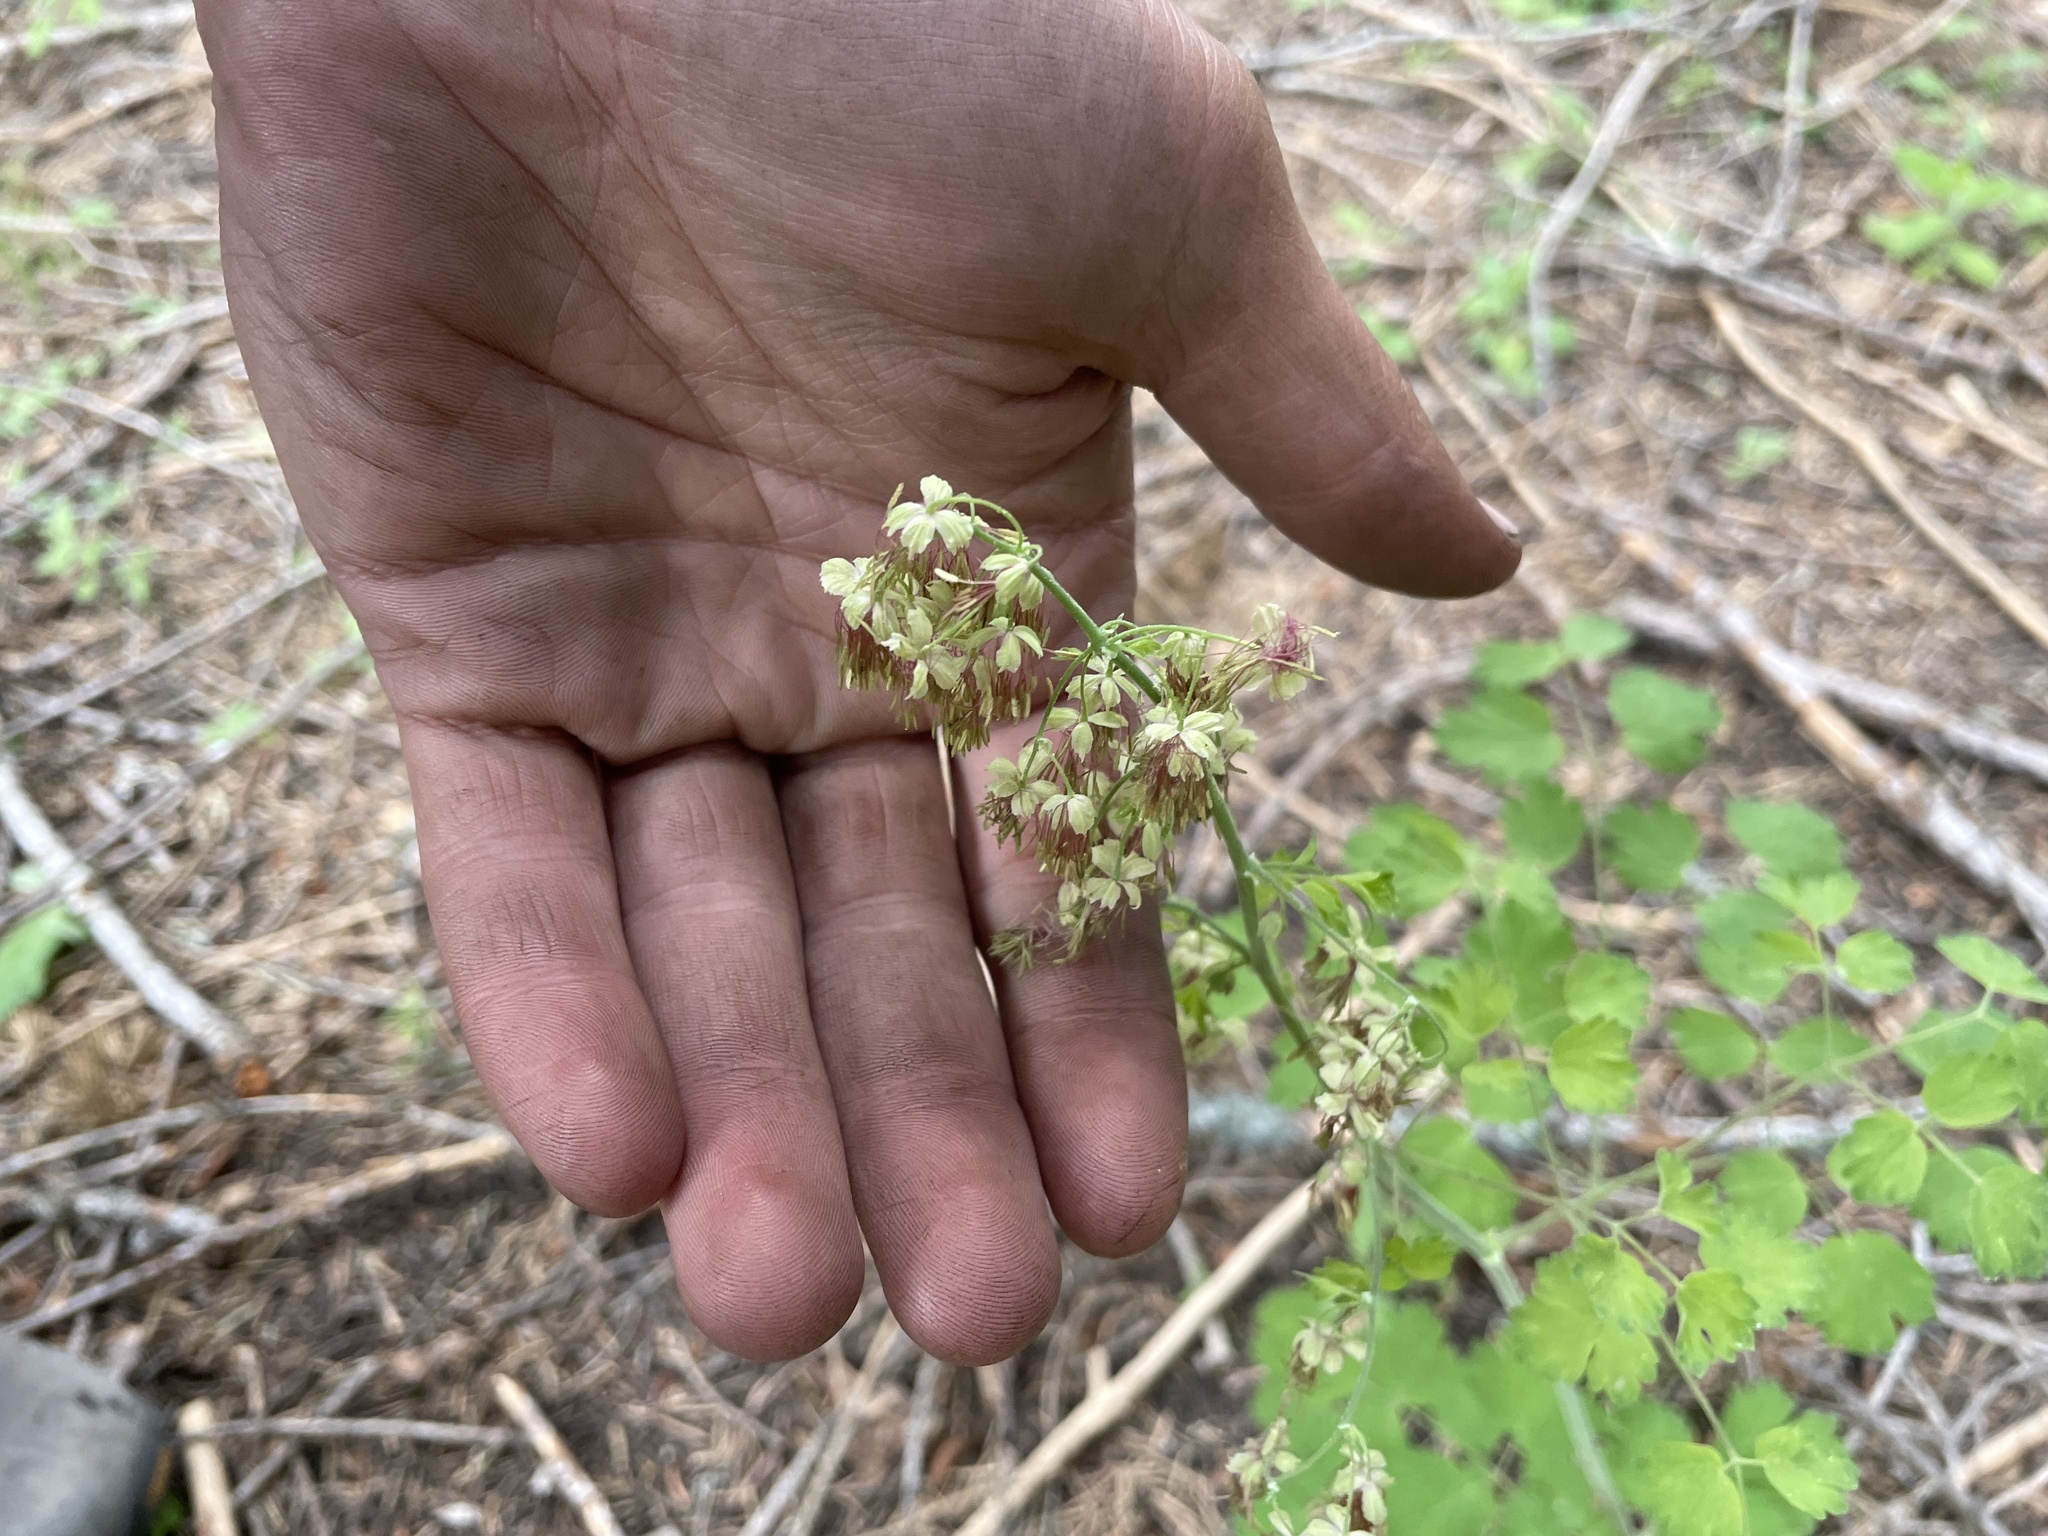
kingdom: Plantae
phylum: Tracheophyta
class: Magnoliopsida
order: Ranunculales
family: Ranunculaceae
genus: Thalictrum
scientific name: Thalictrum fendleri
